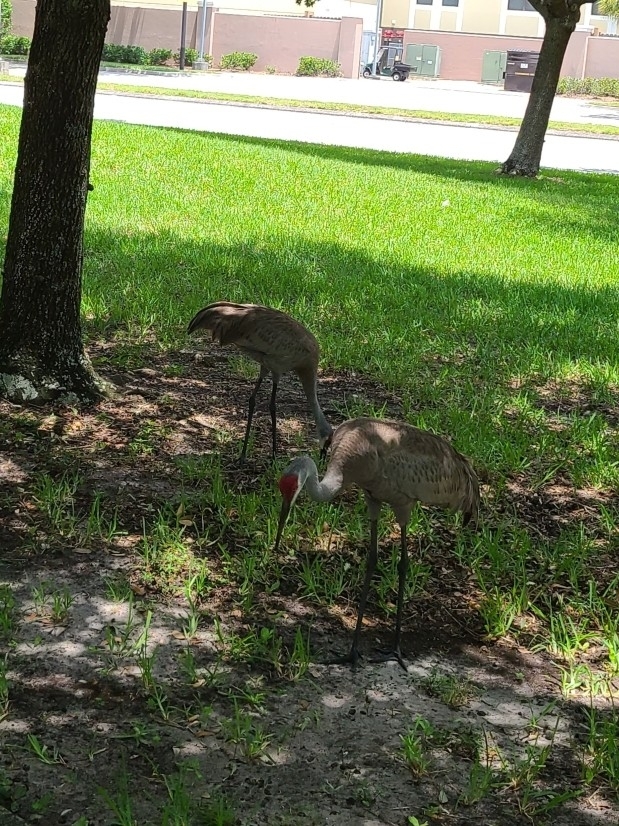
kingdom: Animalia
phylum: Chordata
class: Aves
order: Gruiformes
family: Gruidae
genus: Grus
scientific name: Grus canadensis
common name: Sandhill crane
